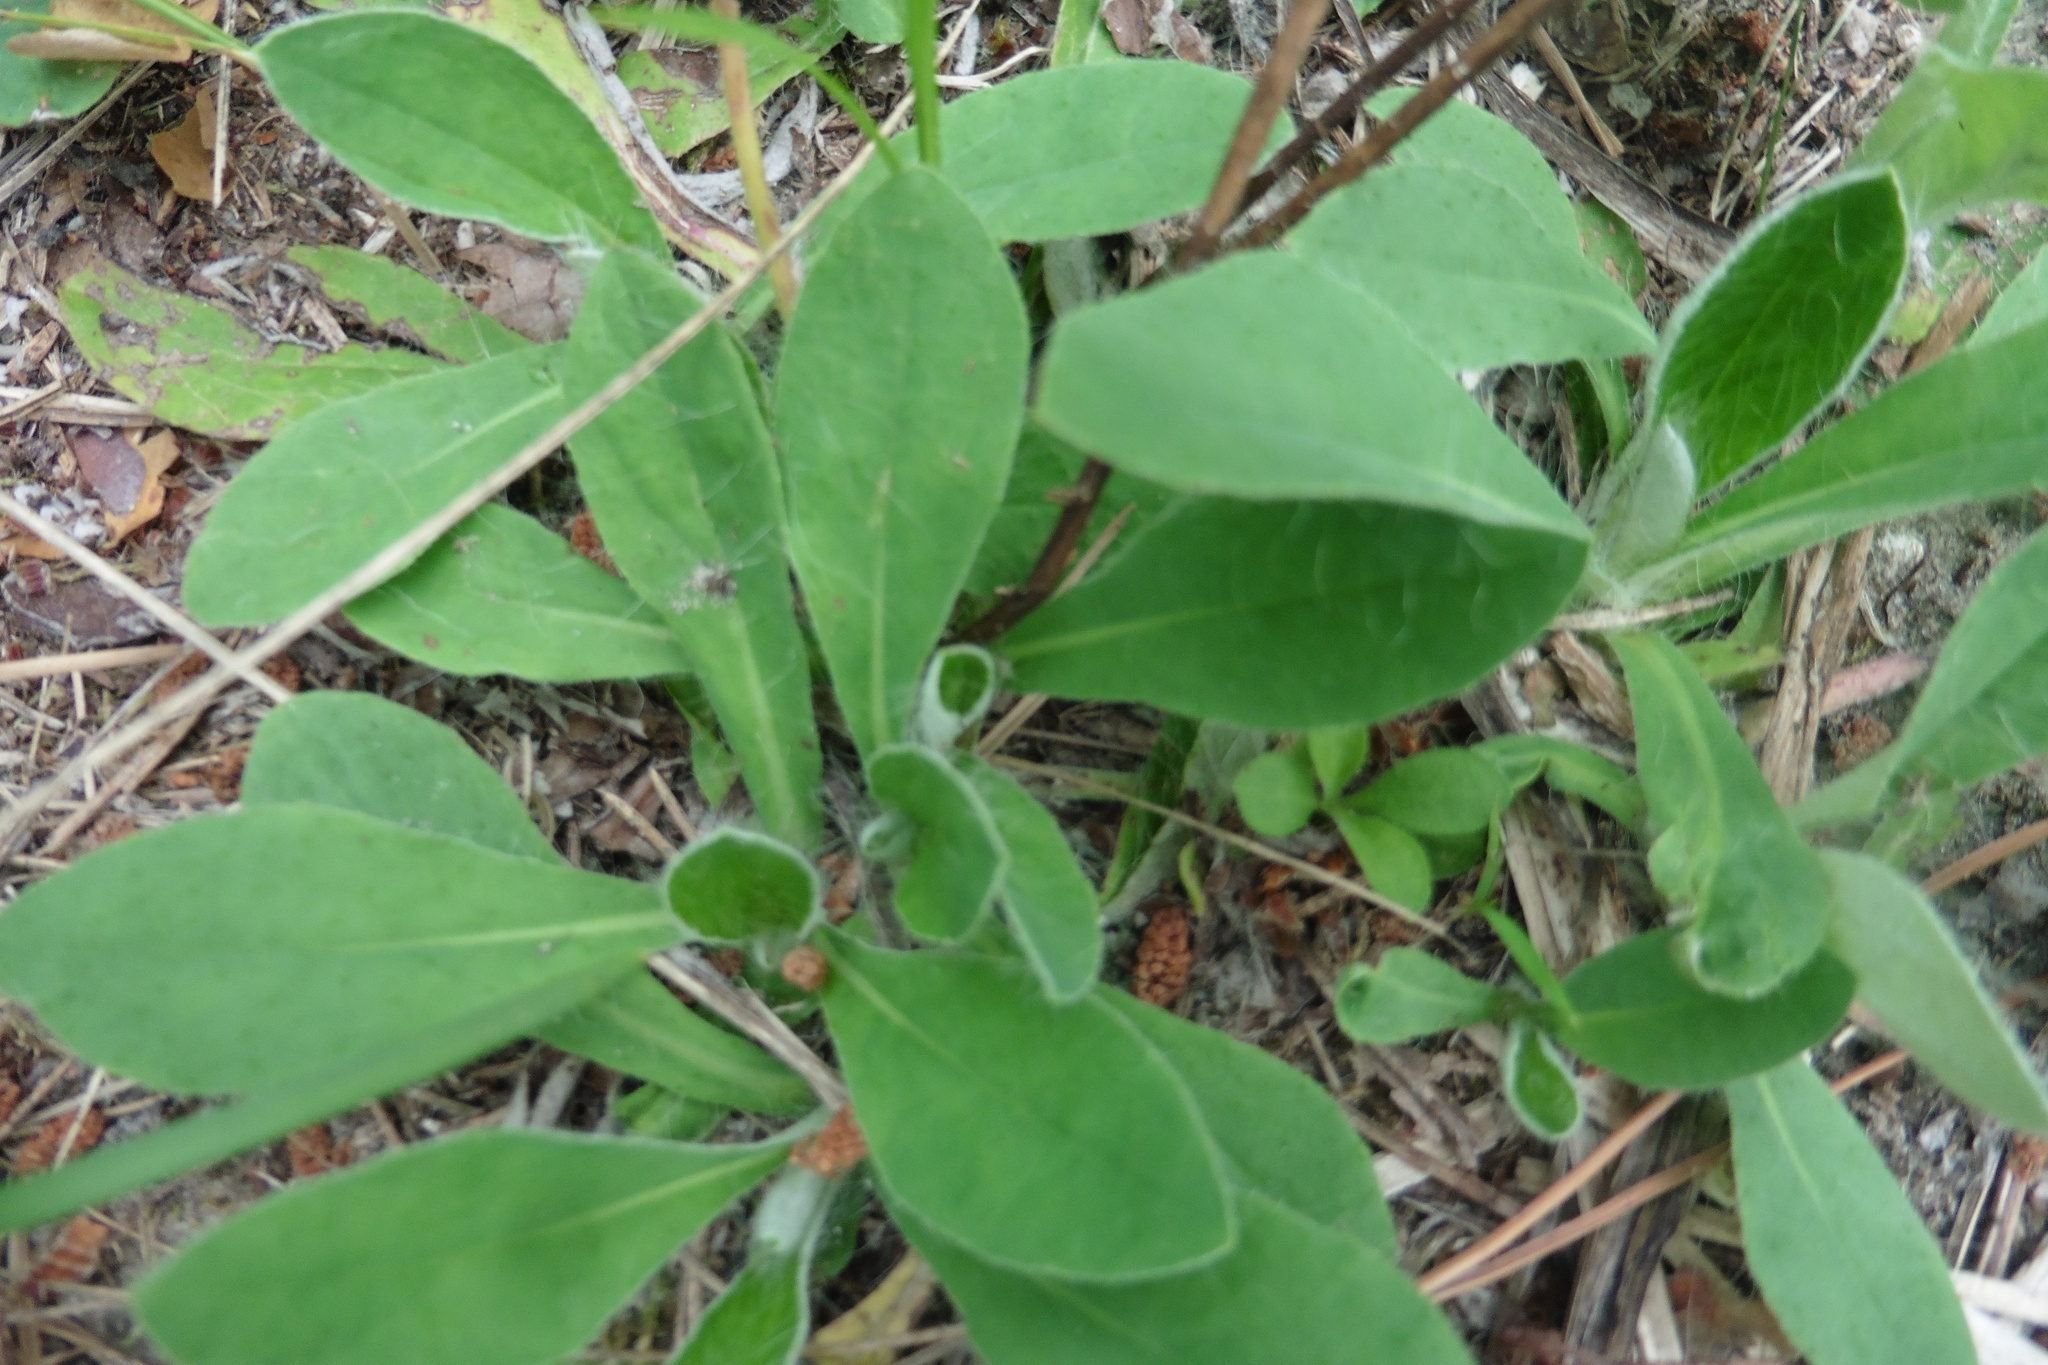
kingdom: Plantae
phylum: Tracheophyta
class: Magnoliopsida
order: Asterales
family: Asteraceae
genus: Pilosella
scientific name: Pilosella officinarum
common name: Mouse-ear hawkweed
